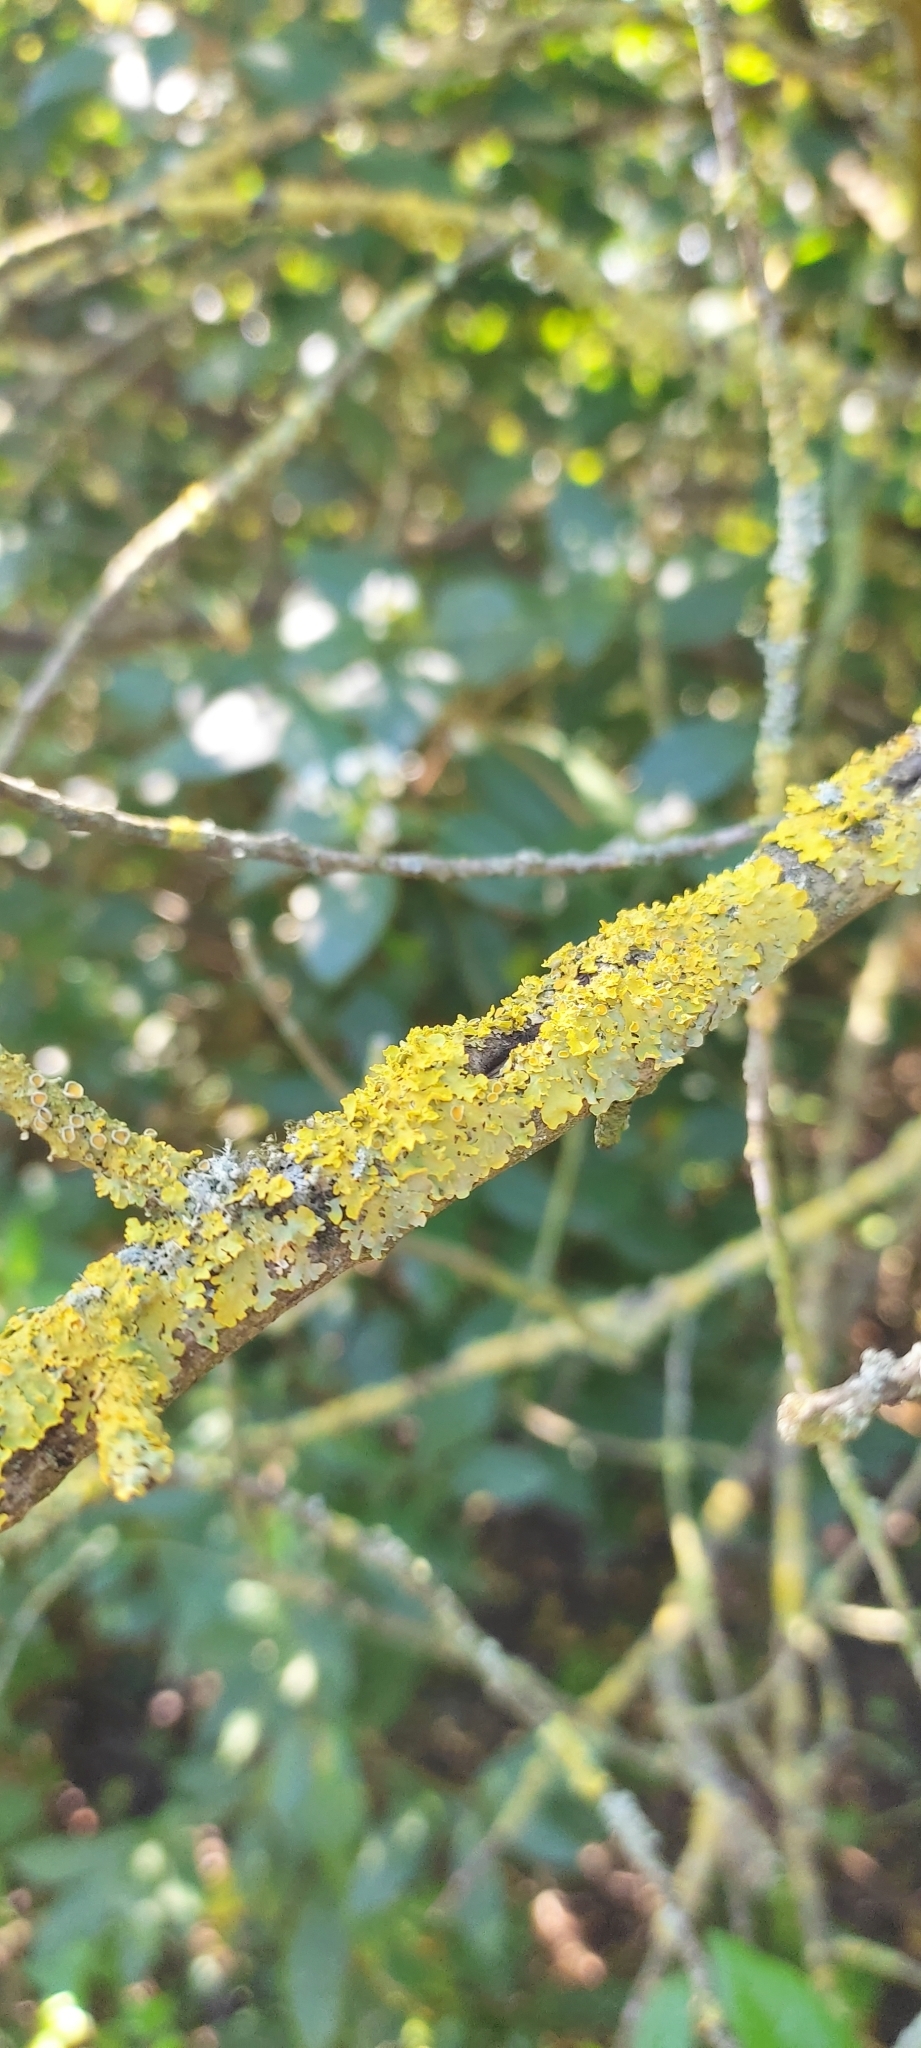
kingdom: Fungi
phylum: Ascomycota
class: Lecanoromycetes
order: Teloschistales
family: Teloschistaceae
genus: Xanthoria
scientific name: Xanthoria parietina
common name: Common orange lichen
